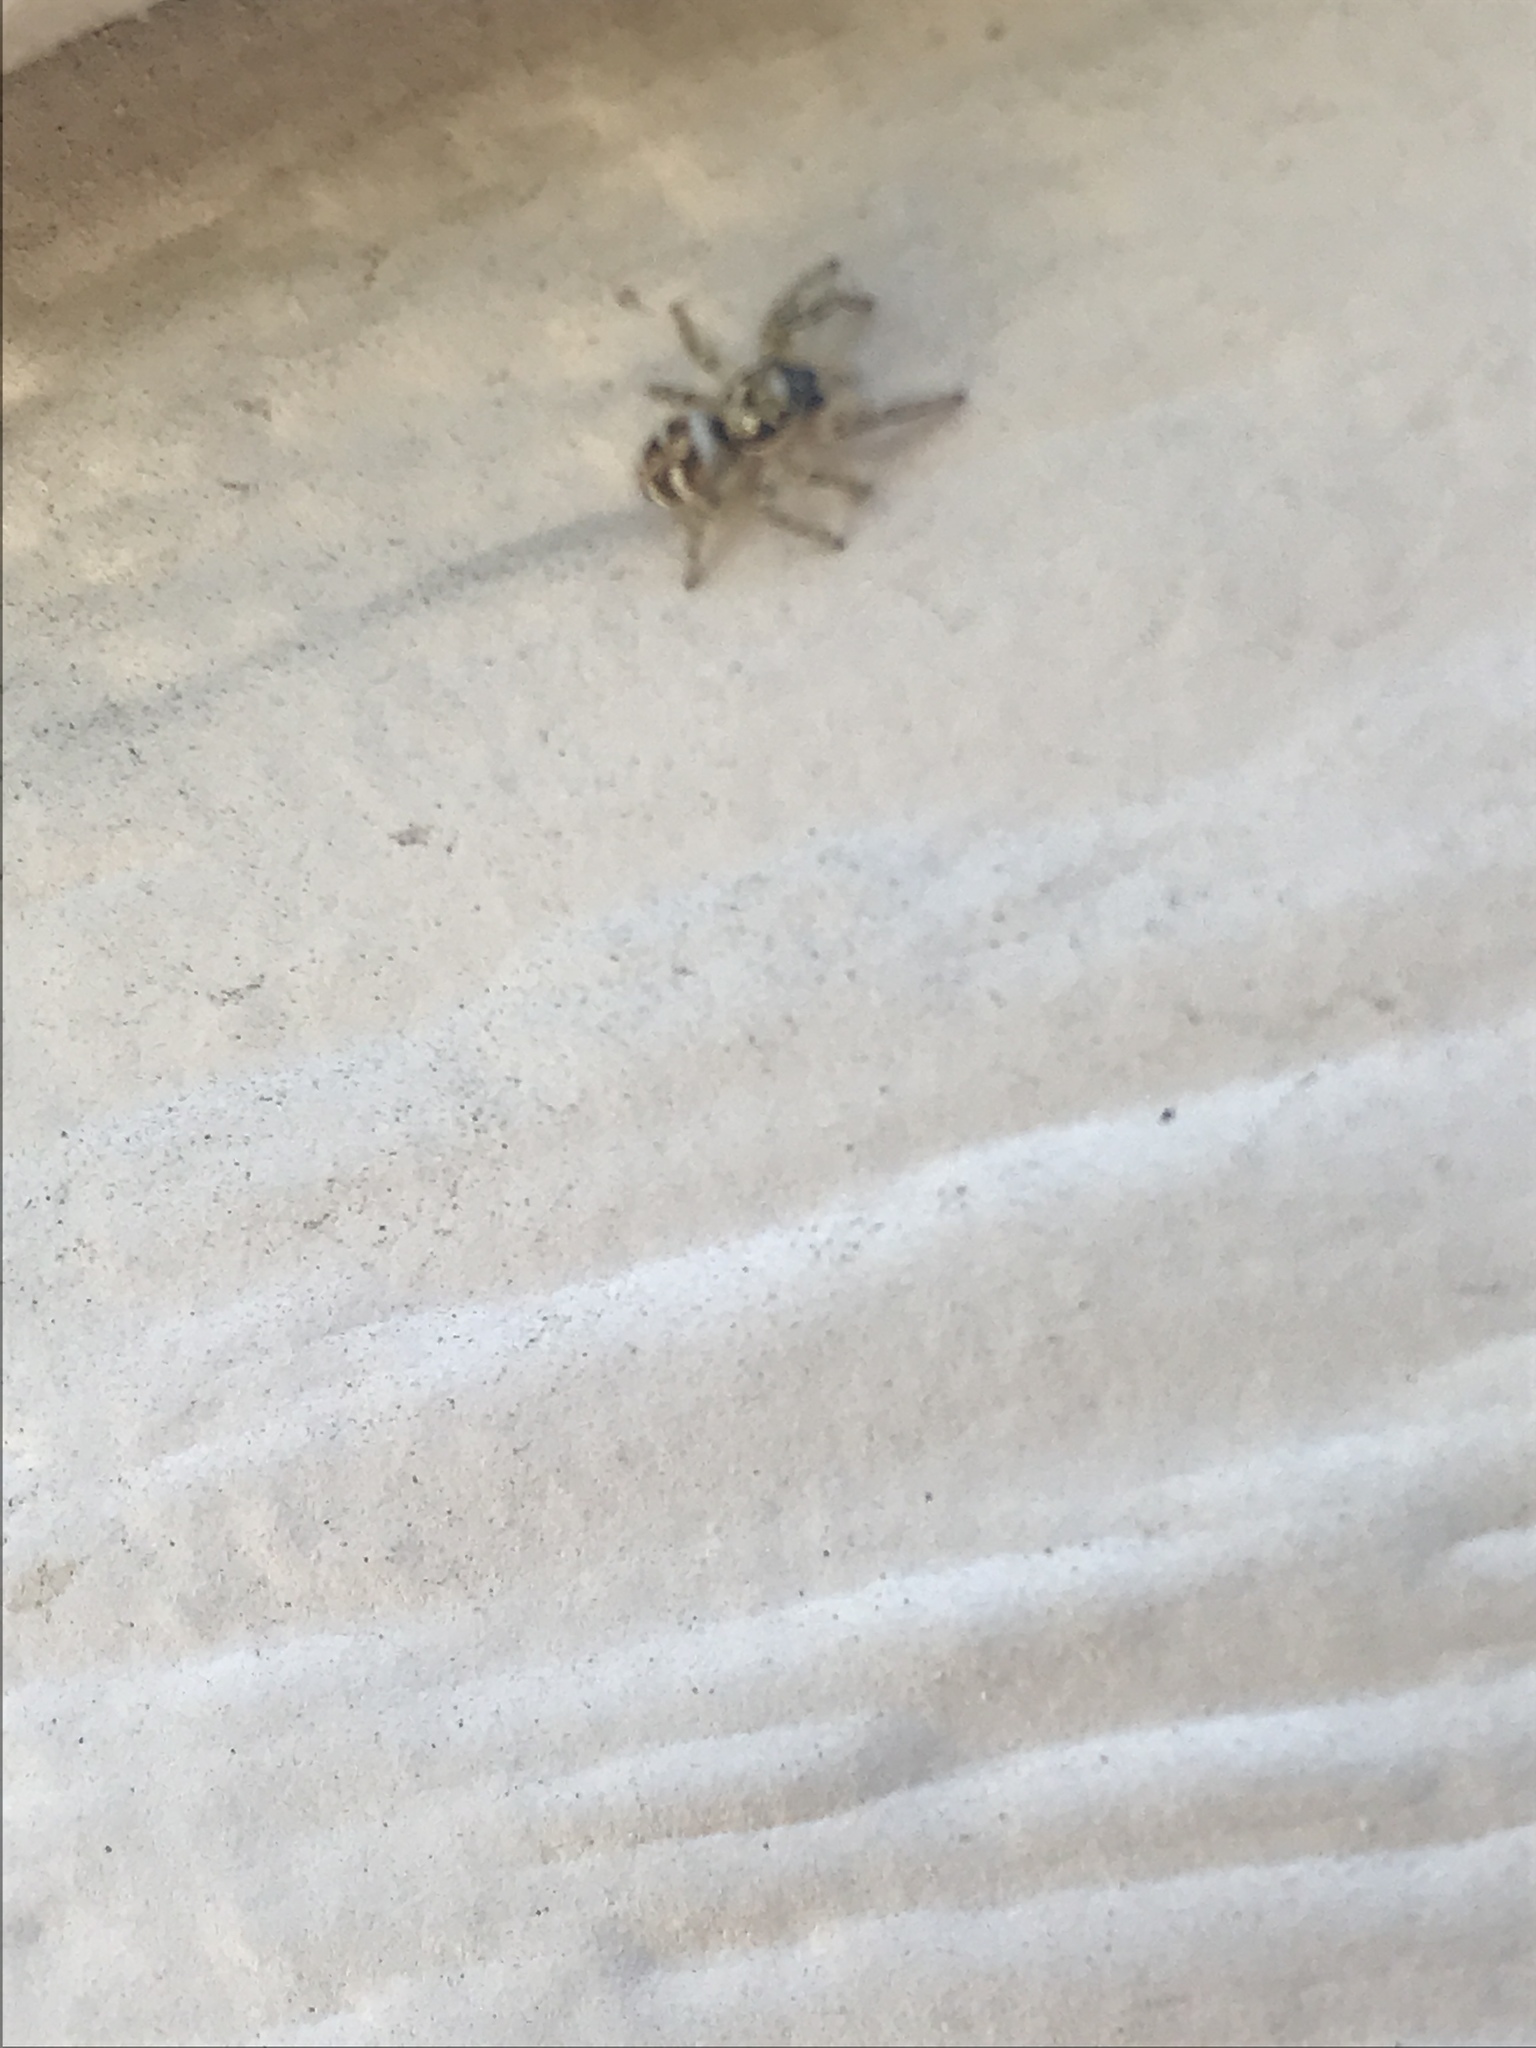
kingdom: Animalia
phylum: Arthropoda
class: Arachnida
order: Araneae
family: Salticidae
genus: Salticus
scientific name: Salticus scenicus
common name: Zebra jumper
